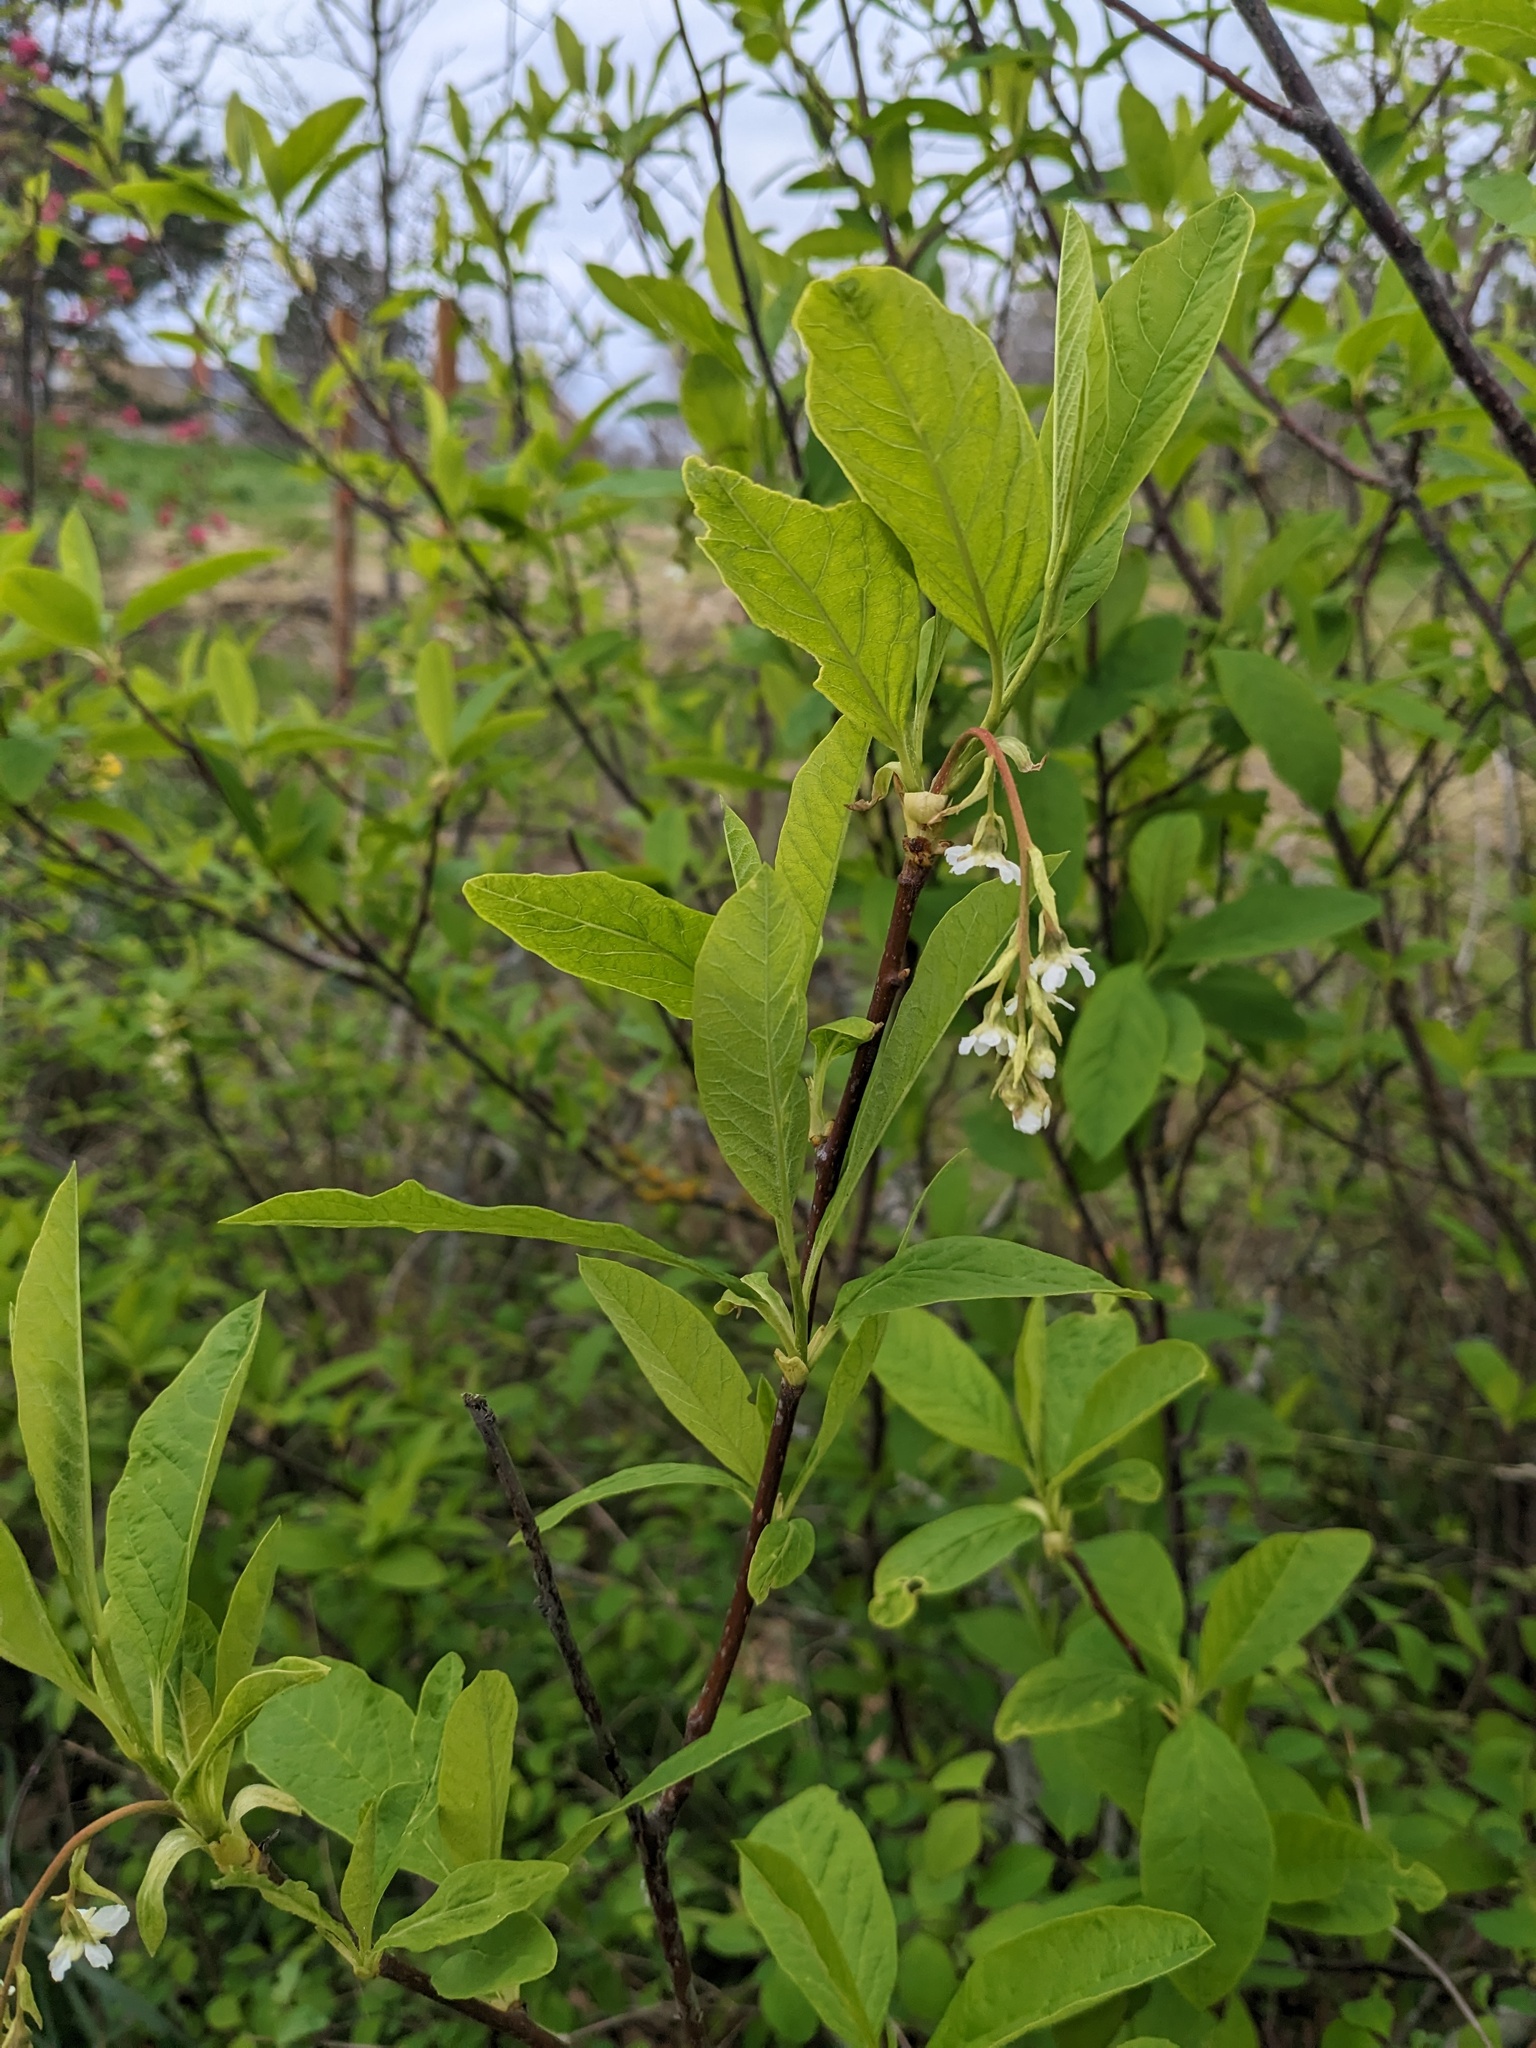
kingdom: Plantae
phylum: Tracheophyta
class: Magnoliopsida
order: Rosales
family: Rosaceae
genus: Oemleria
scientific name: Oemleria cerasiformis
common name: Osoberry
